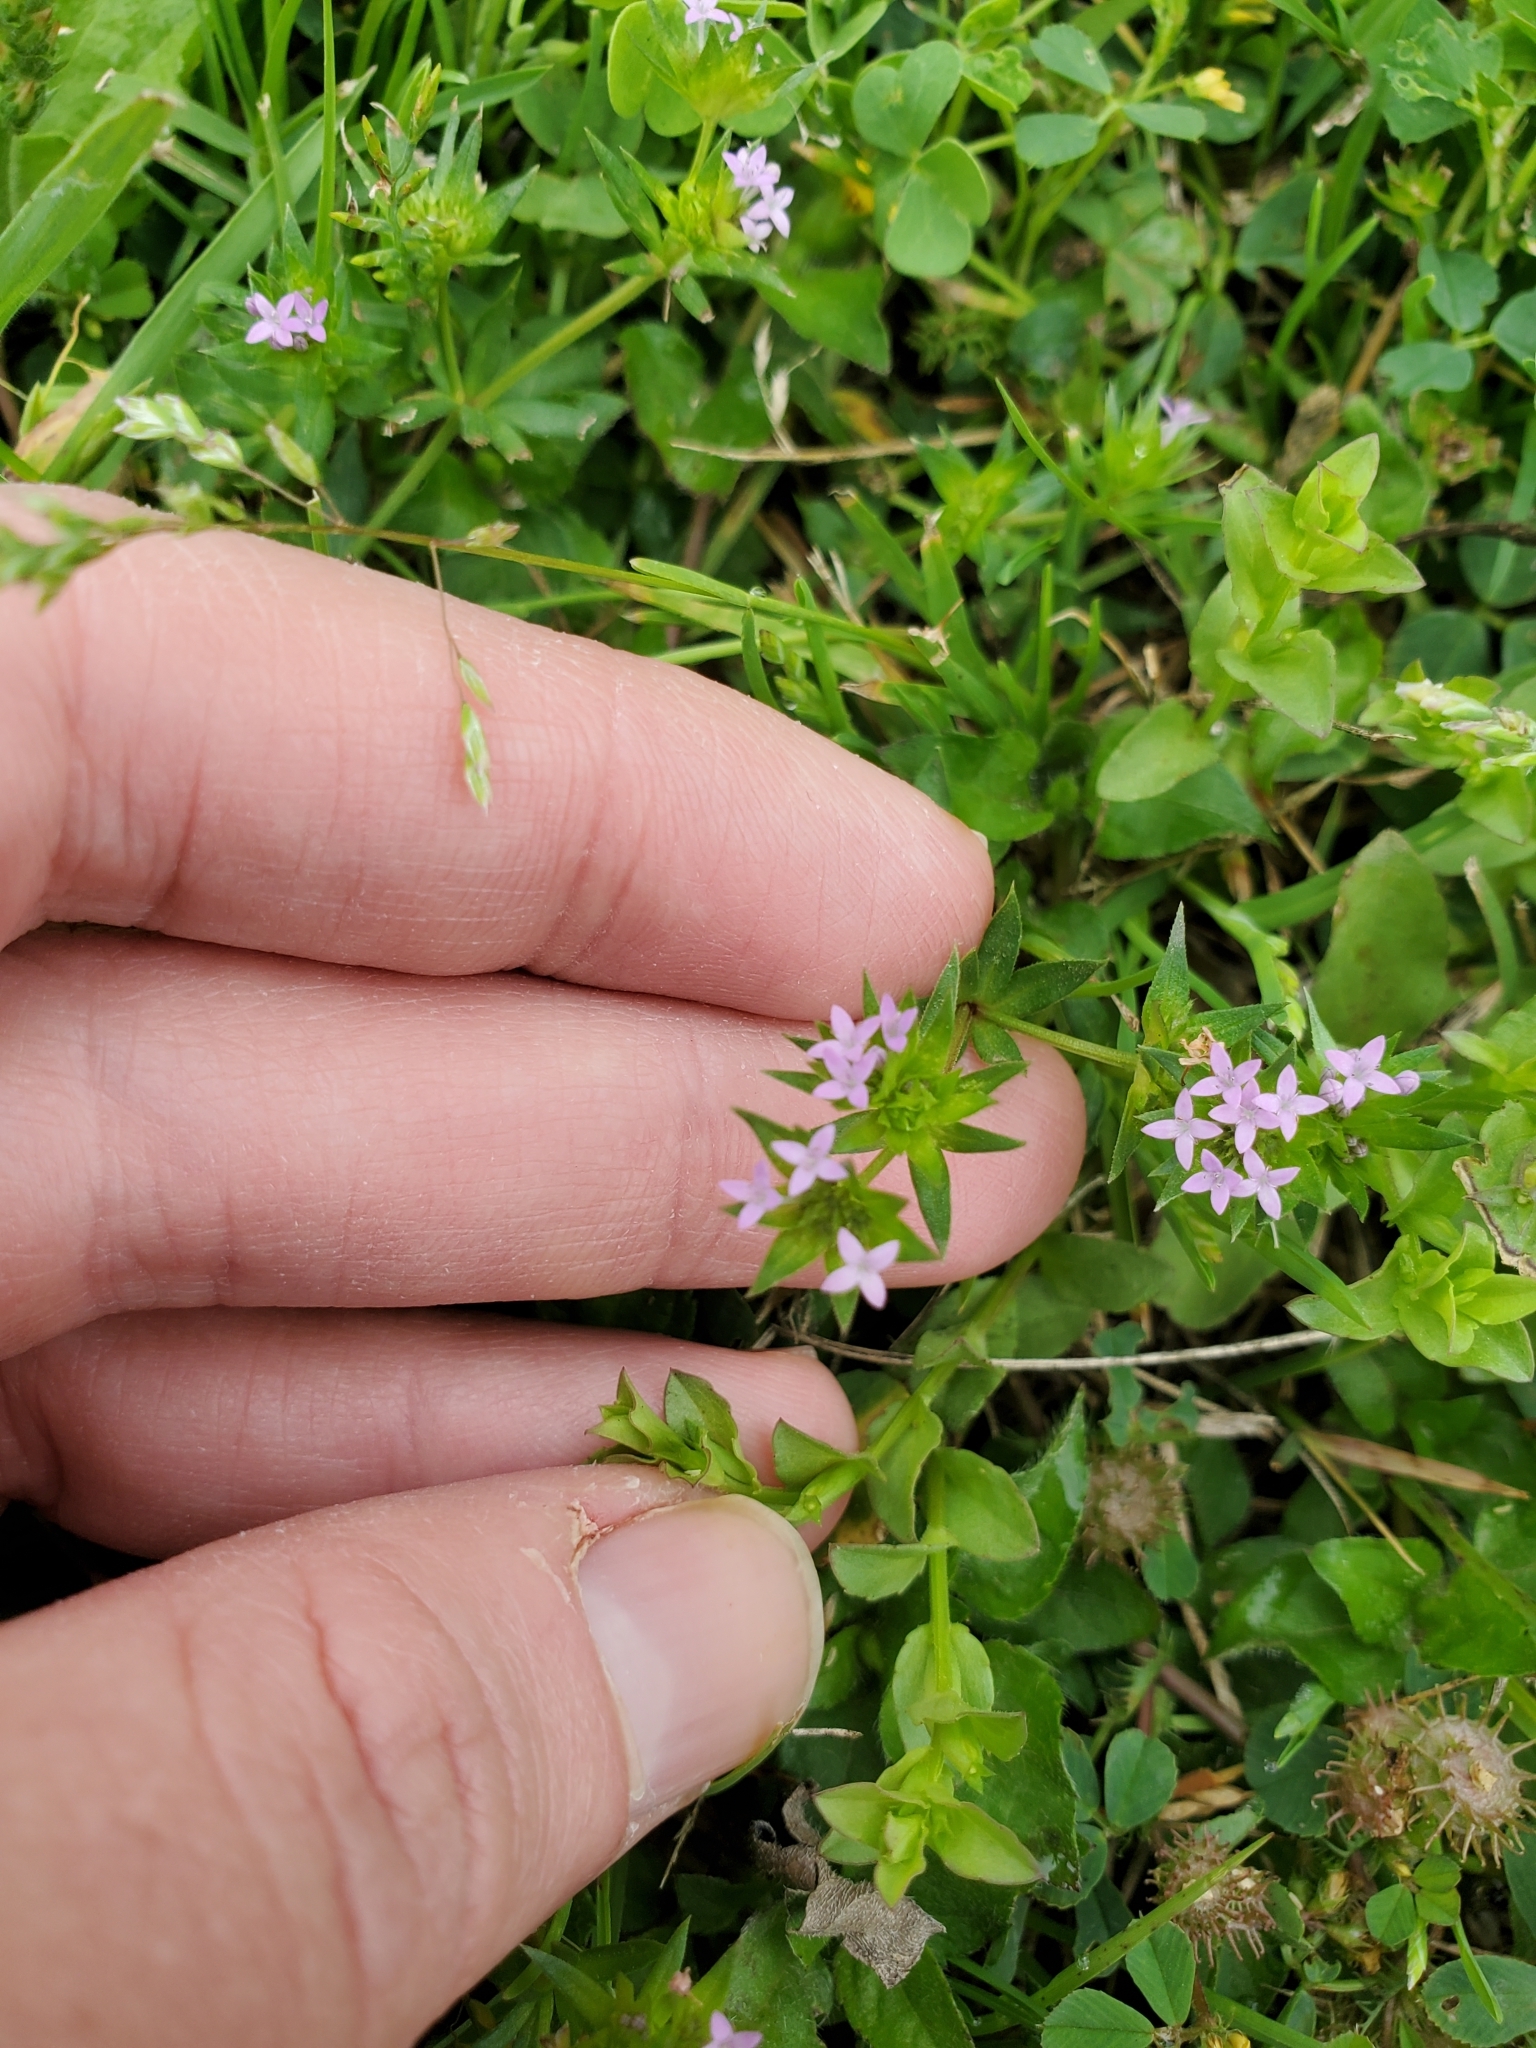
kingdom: Plantae
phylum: Tracheophyta
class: Magnoliopsida
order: Gentianales
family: Rubiaceae
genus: Sherardia
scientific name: Sherardia arvensis
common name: Field madder
